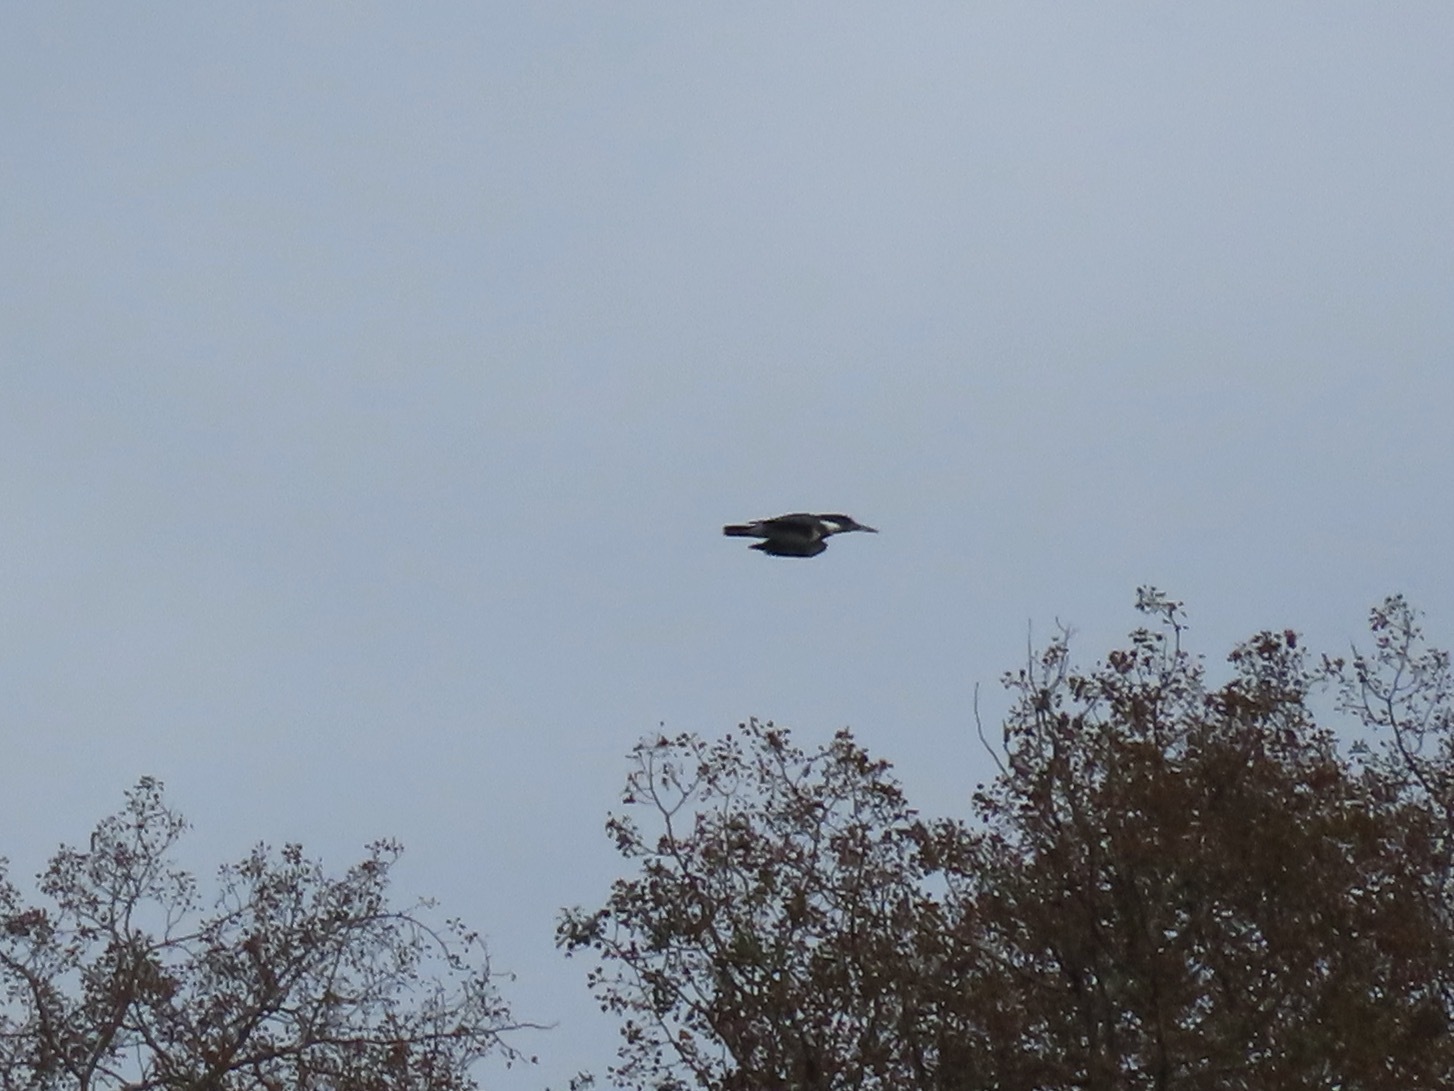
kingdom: Animalia
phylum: Chordata
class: Aves
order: Coraciiformes
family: Alcedinidae
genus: Megaceryle
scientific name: Megaceryle alcyon
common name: Belted kingfisher
